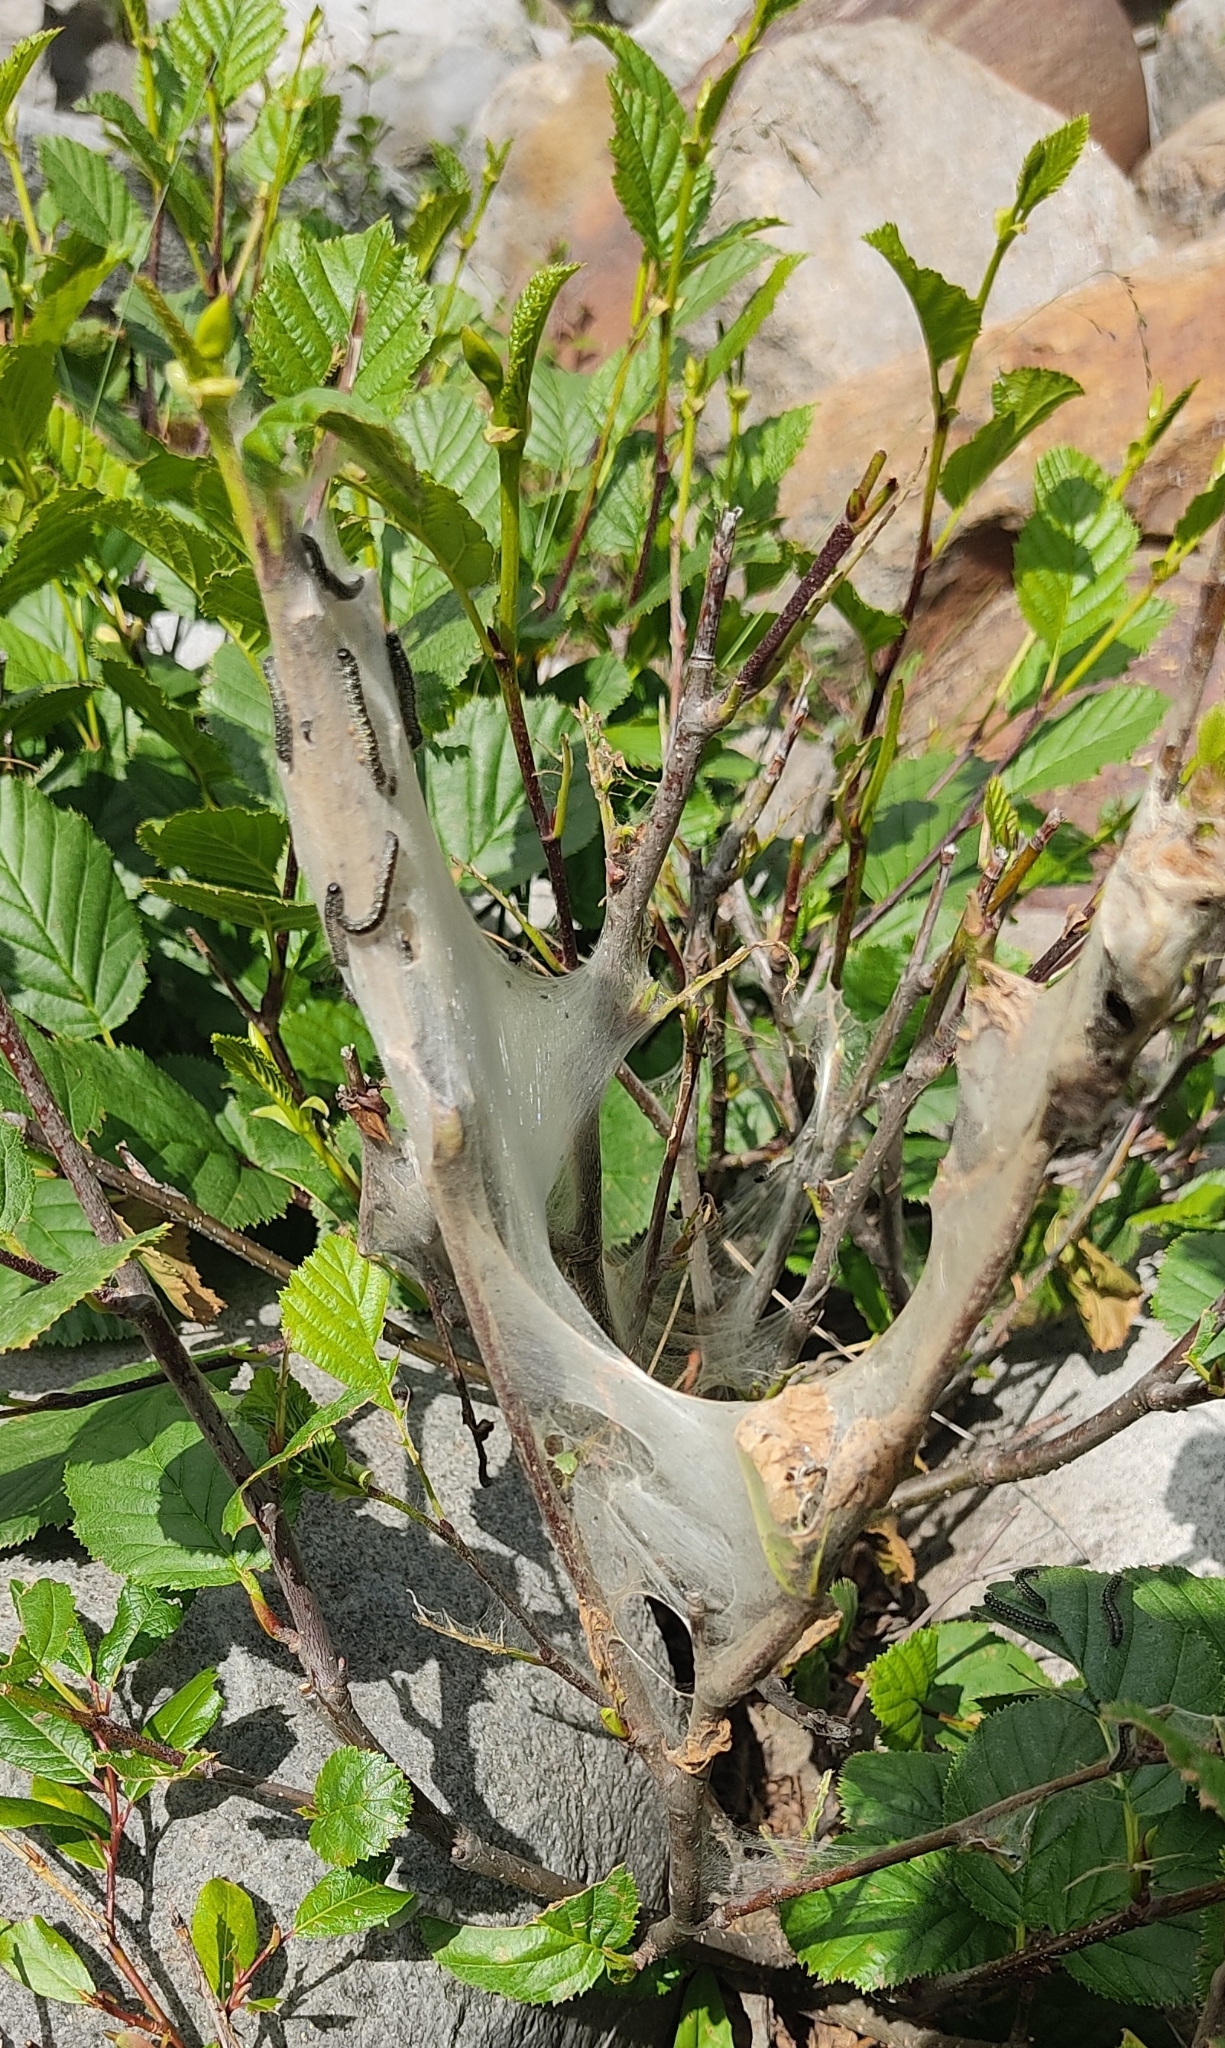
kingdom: Animalia
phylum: Arthropoda
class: Insecta
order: Lepidoptera
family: Lasiocampidae
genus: Eriogaster
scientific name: Eriogaster arbusculae
